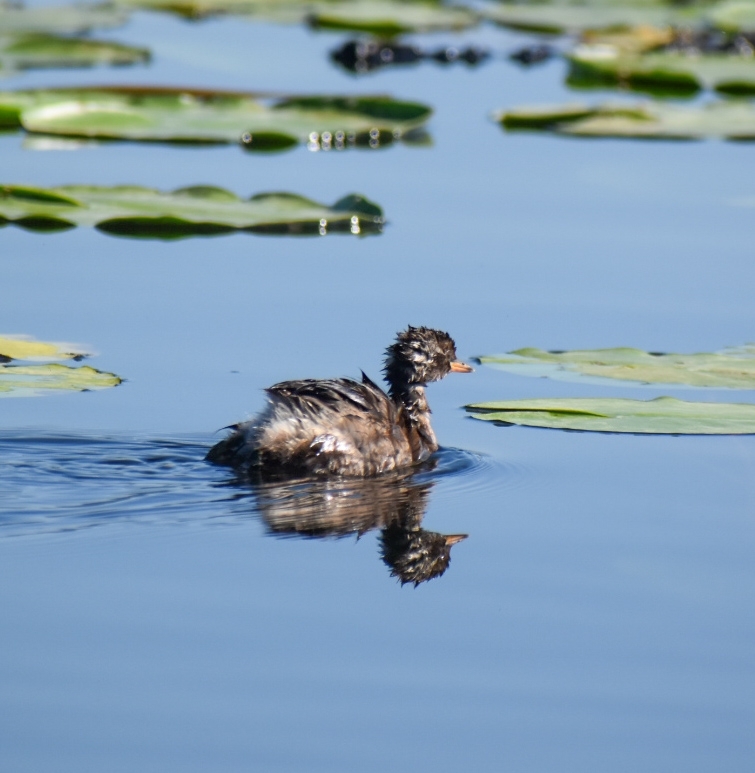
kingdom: Animalia
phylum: Chordata
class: Aves
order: Podicipediformes
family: Podicipedidae
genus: Tachybaptus
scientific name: Tachybaptus ruficollis
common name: Little grebe
